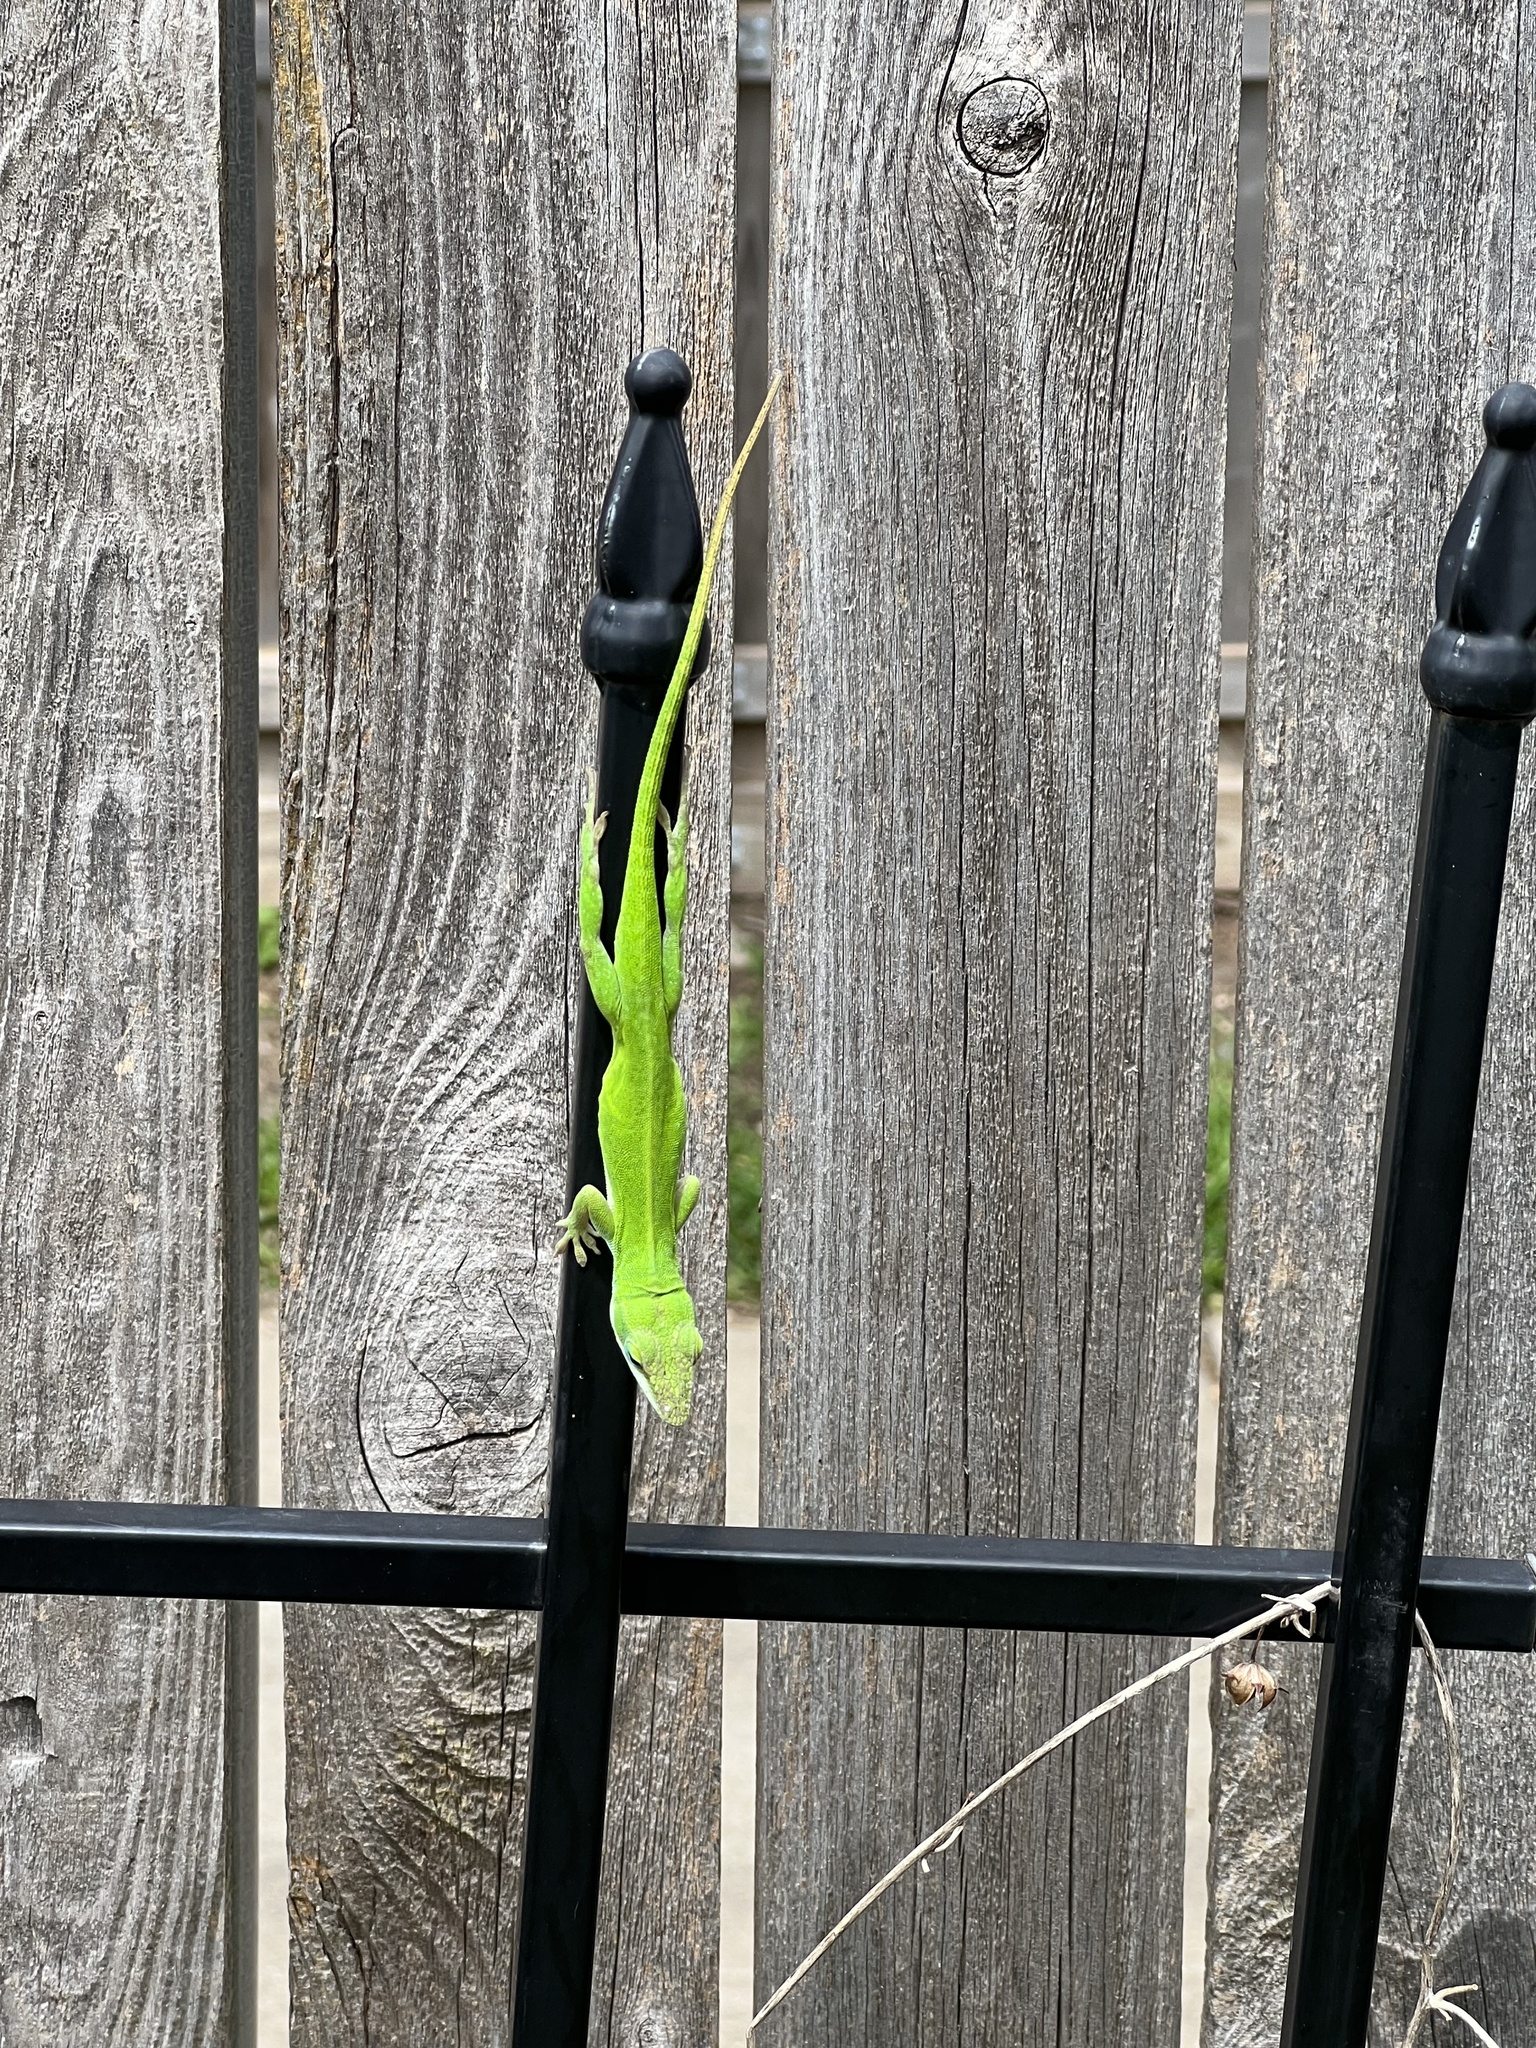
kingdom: Animalia
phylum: Chordata
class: Squamata
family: Dactyloidae
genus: Anolis
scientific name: Anolis carolinensis
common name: Green anole
